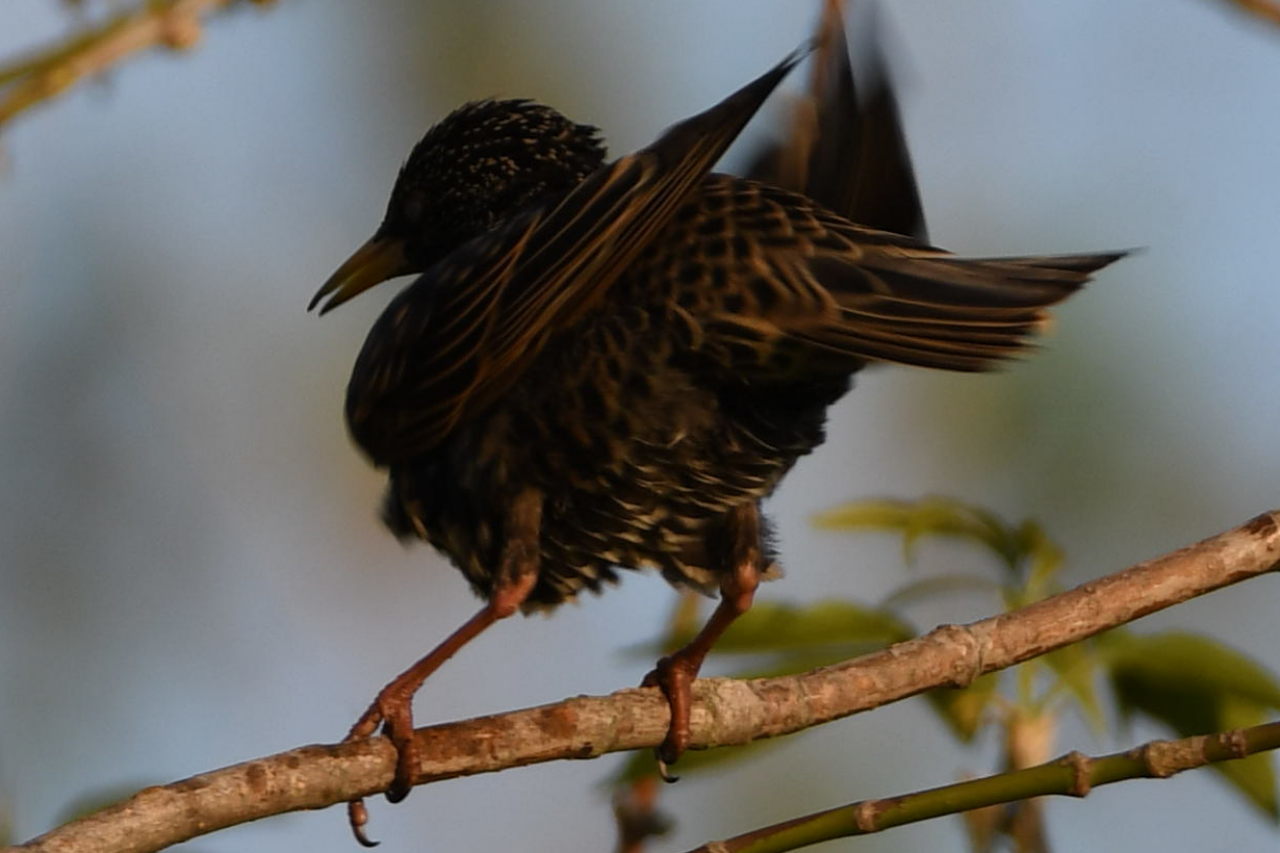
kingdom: Animalia
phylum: Chordata
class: Aves
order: Passeriformes
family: Sturnidae
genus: Sturnus
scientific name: Sturnus vulgaris
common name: Common starling
